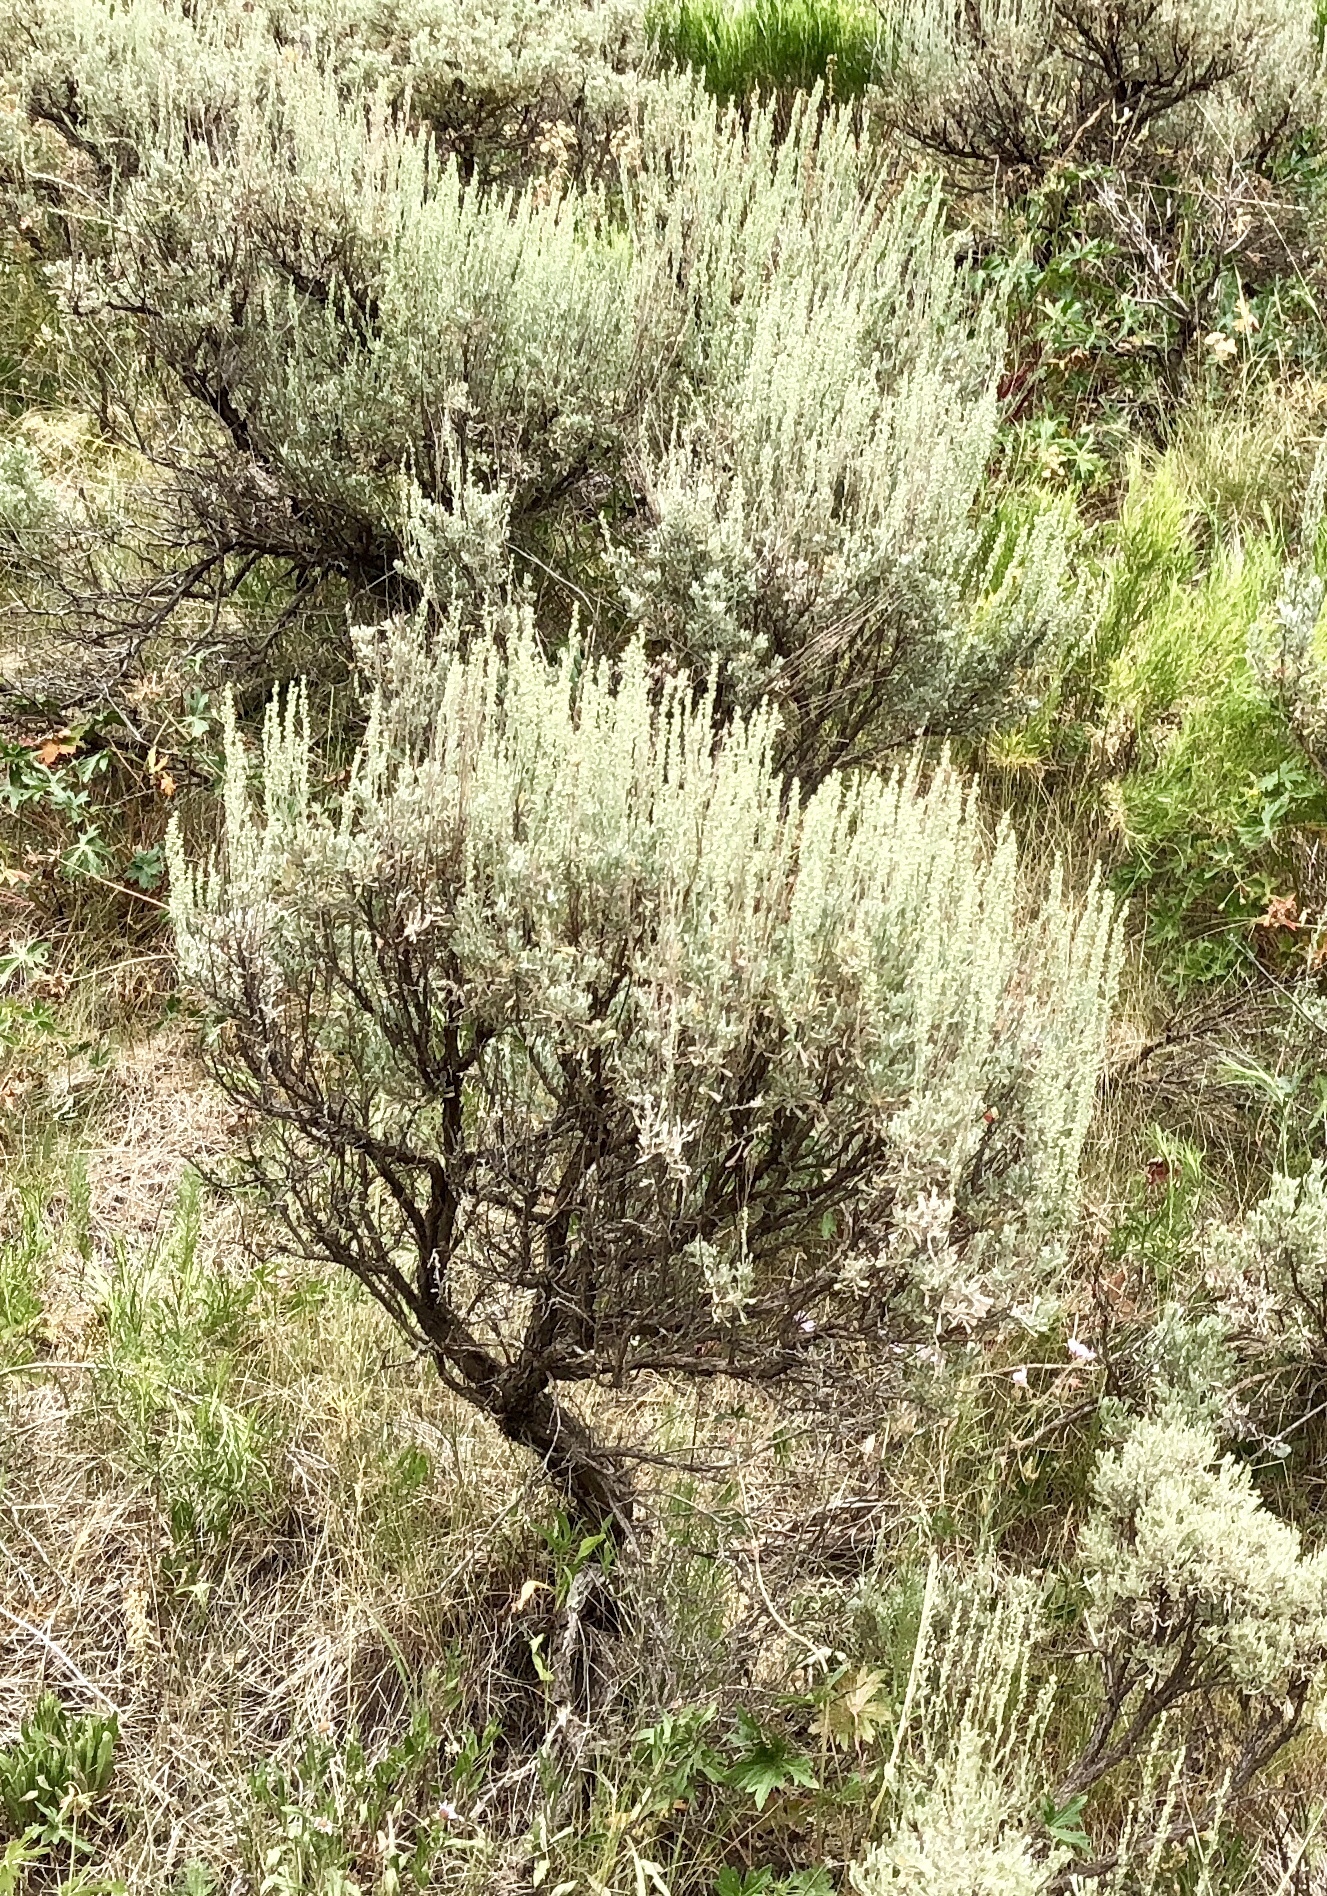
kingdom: Plantae
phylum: Tracheophyta
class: Magnoliopsida
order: Asterales
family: Asteraceae
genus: Artemisia
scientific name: Artemisia tridentata
